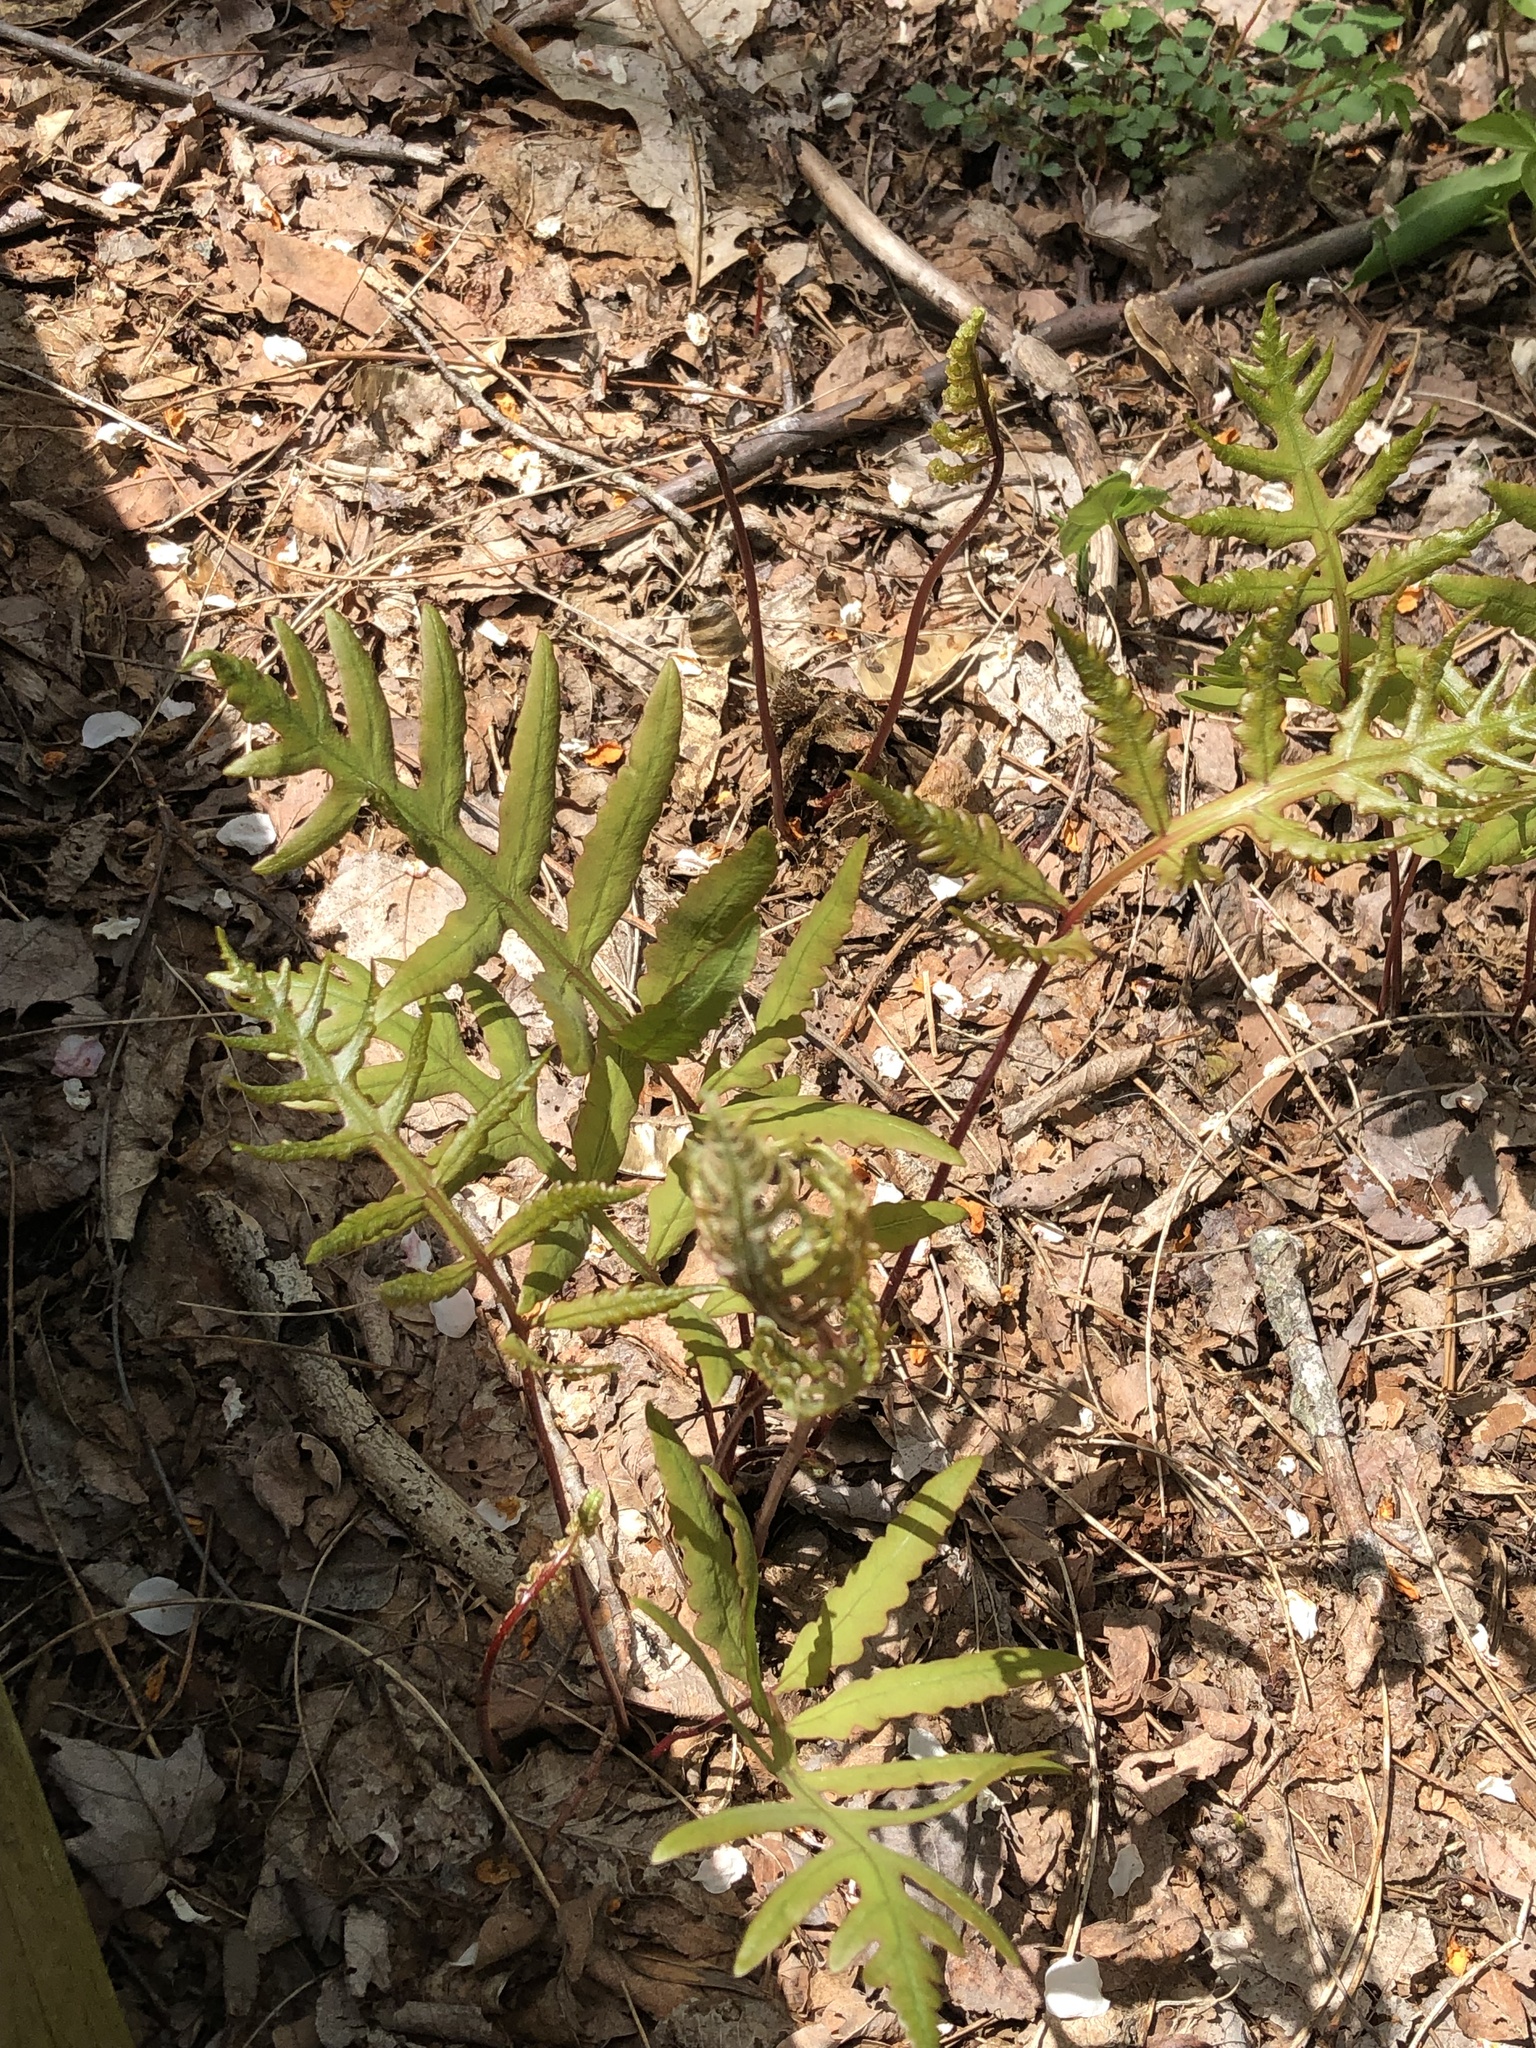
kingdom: Plantae
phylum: Tracheophyta
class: Polypodiopsida
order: Polypodiales
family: Onocleaceae
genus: Onoclea
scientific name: Onoclea sensibilis
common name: Sensitive fern
